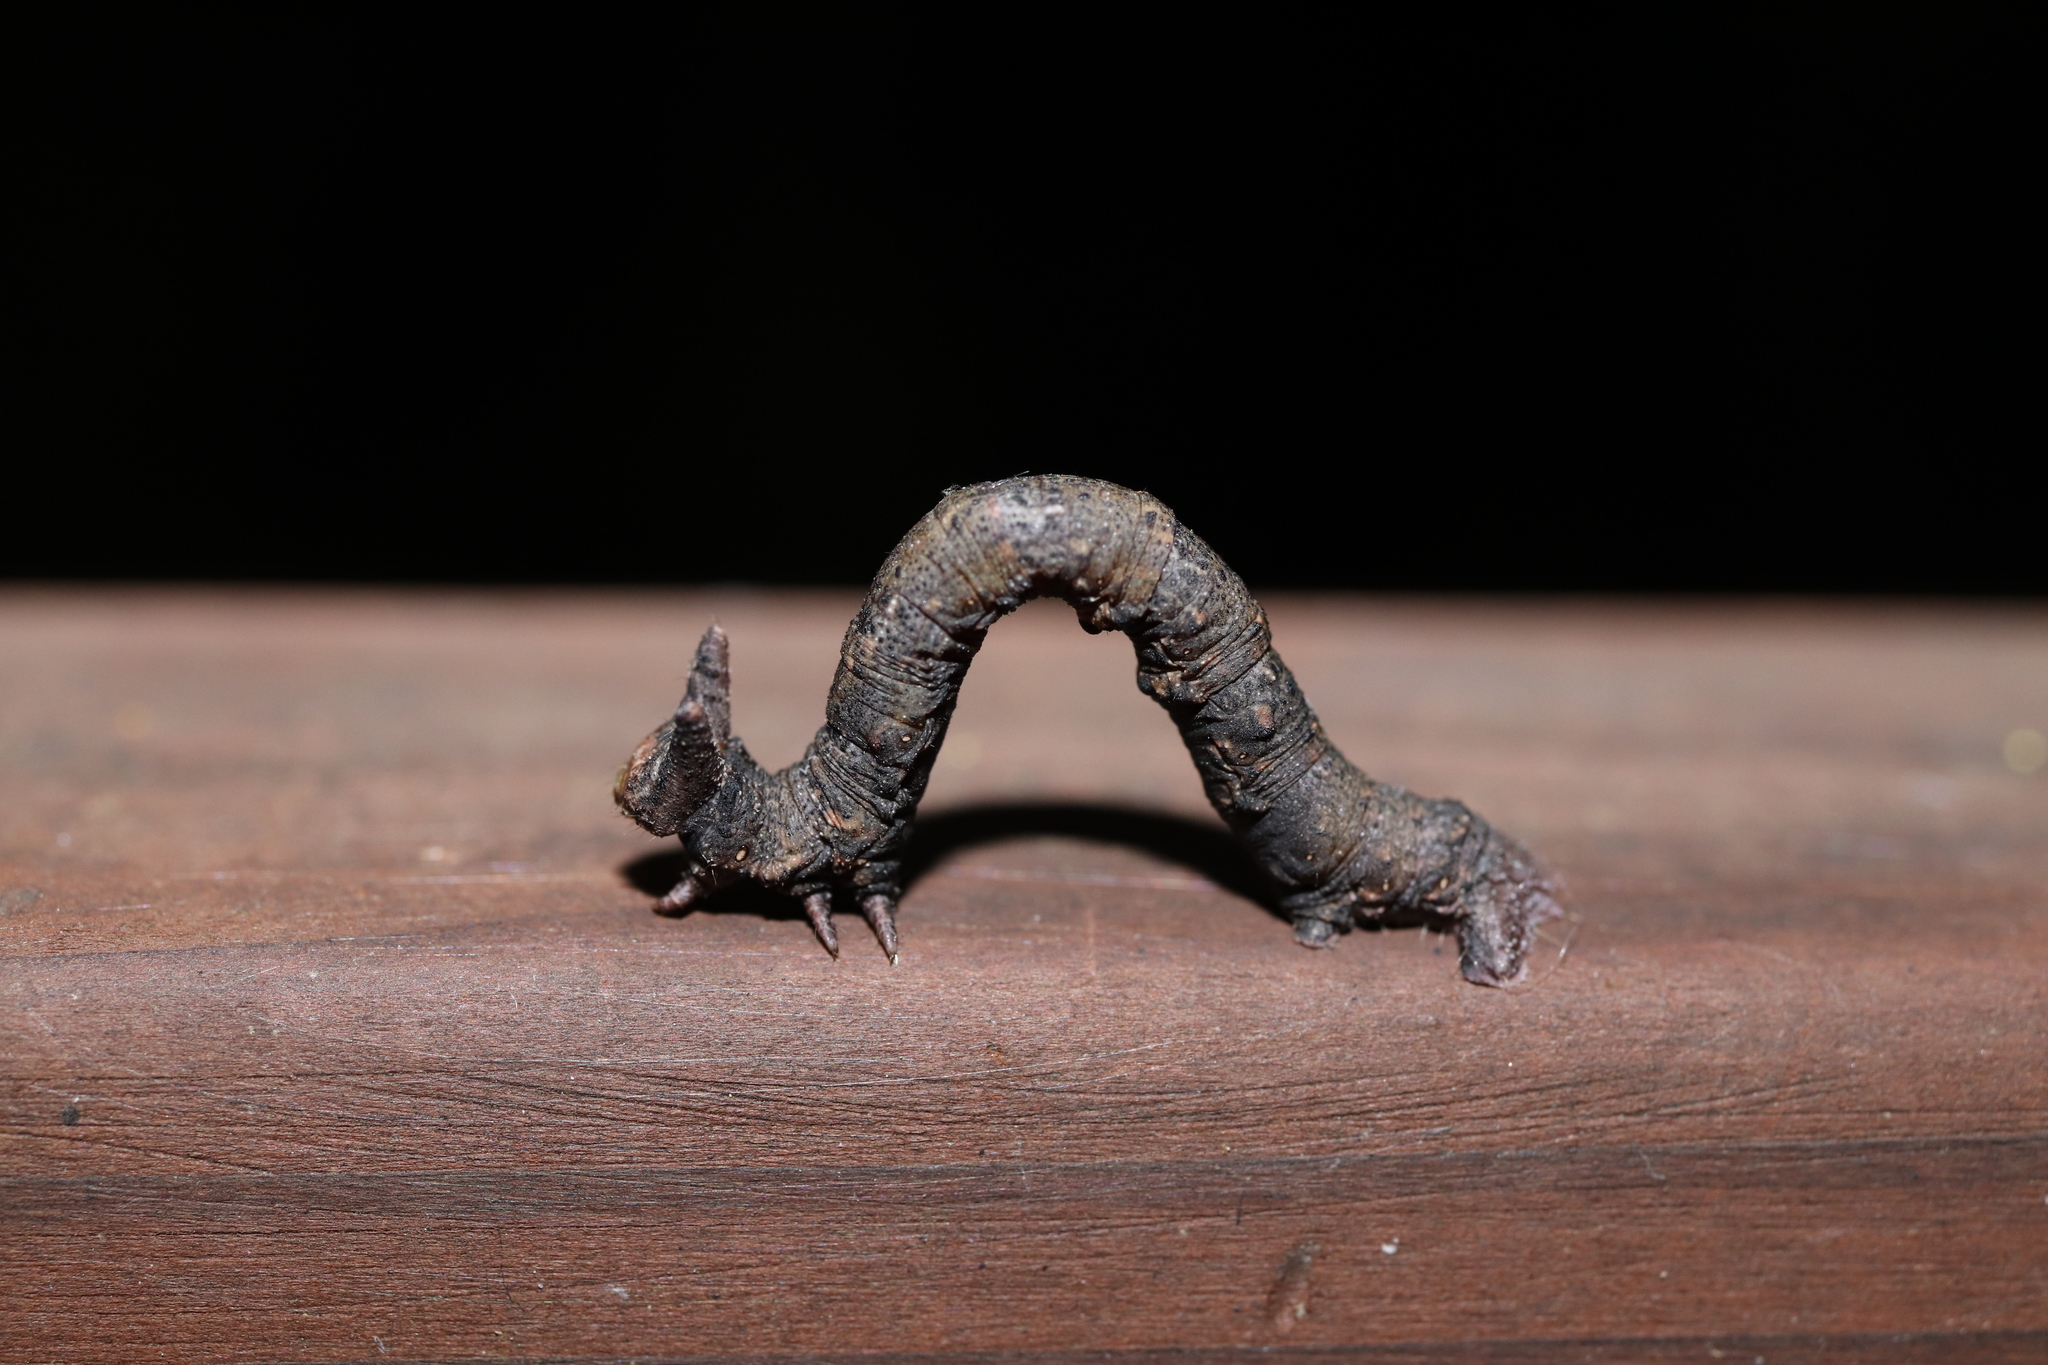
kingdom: Animalia
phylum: Arthropoda
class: Insecta
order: Lepidoptera
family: Geometridae
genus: Biston
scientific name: Biston robustum
